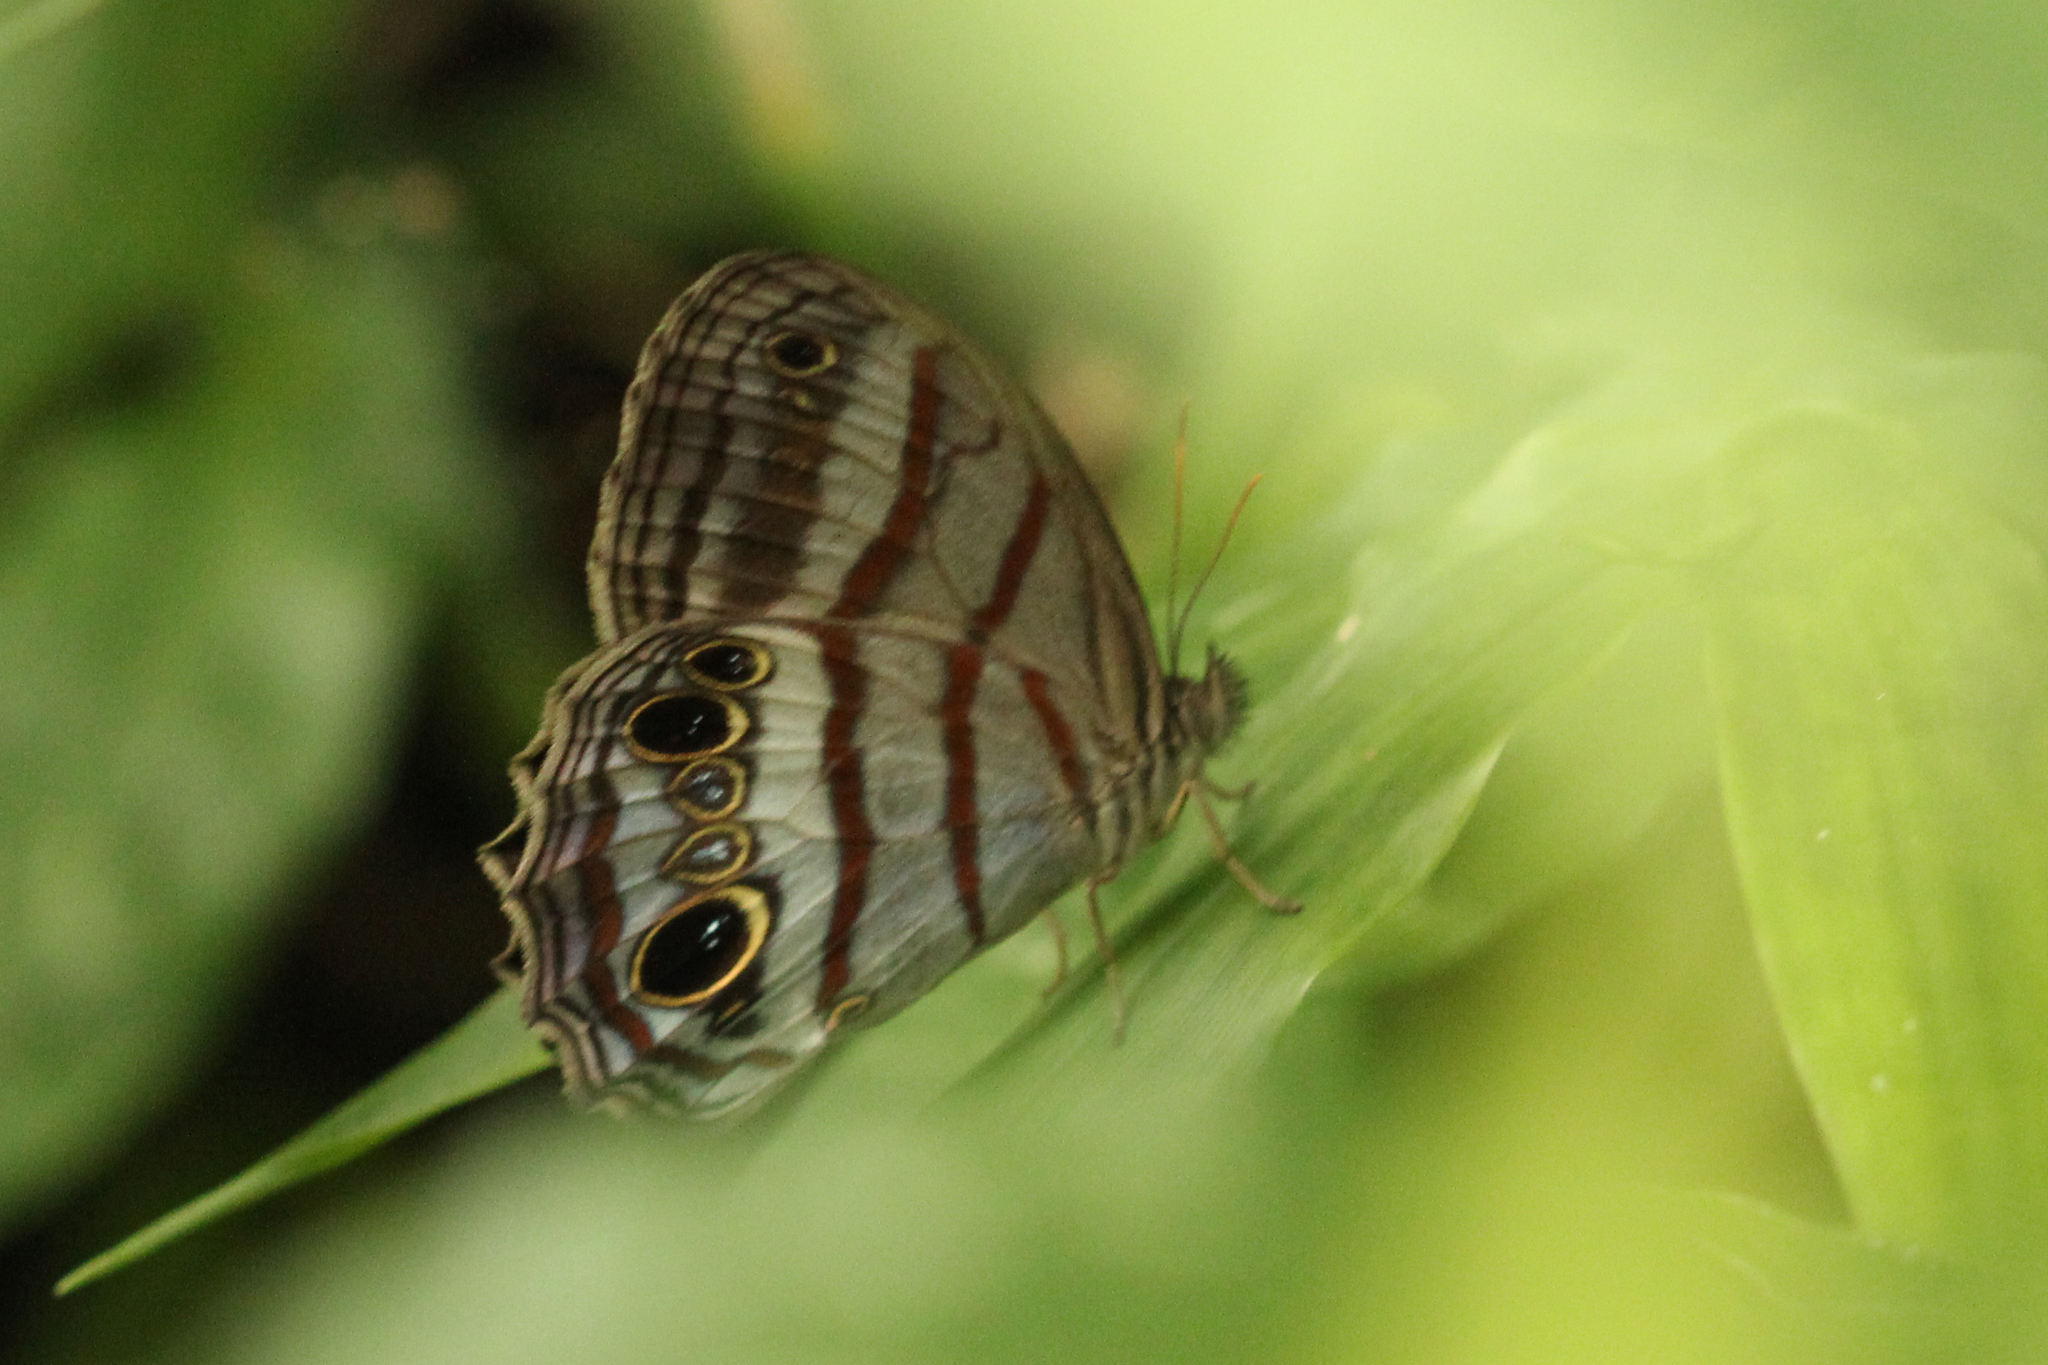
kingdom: Animalia
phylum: Arthropoda
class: Insecta
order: Lepidoptera
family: Nymphalidae
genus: Magneuptychia
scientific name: Magneuptychia libye
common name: Blue-gray satyr
